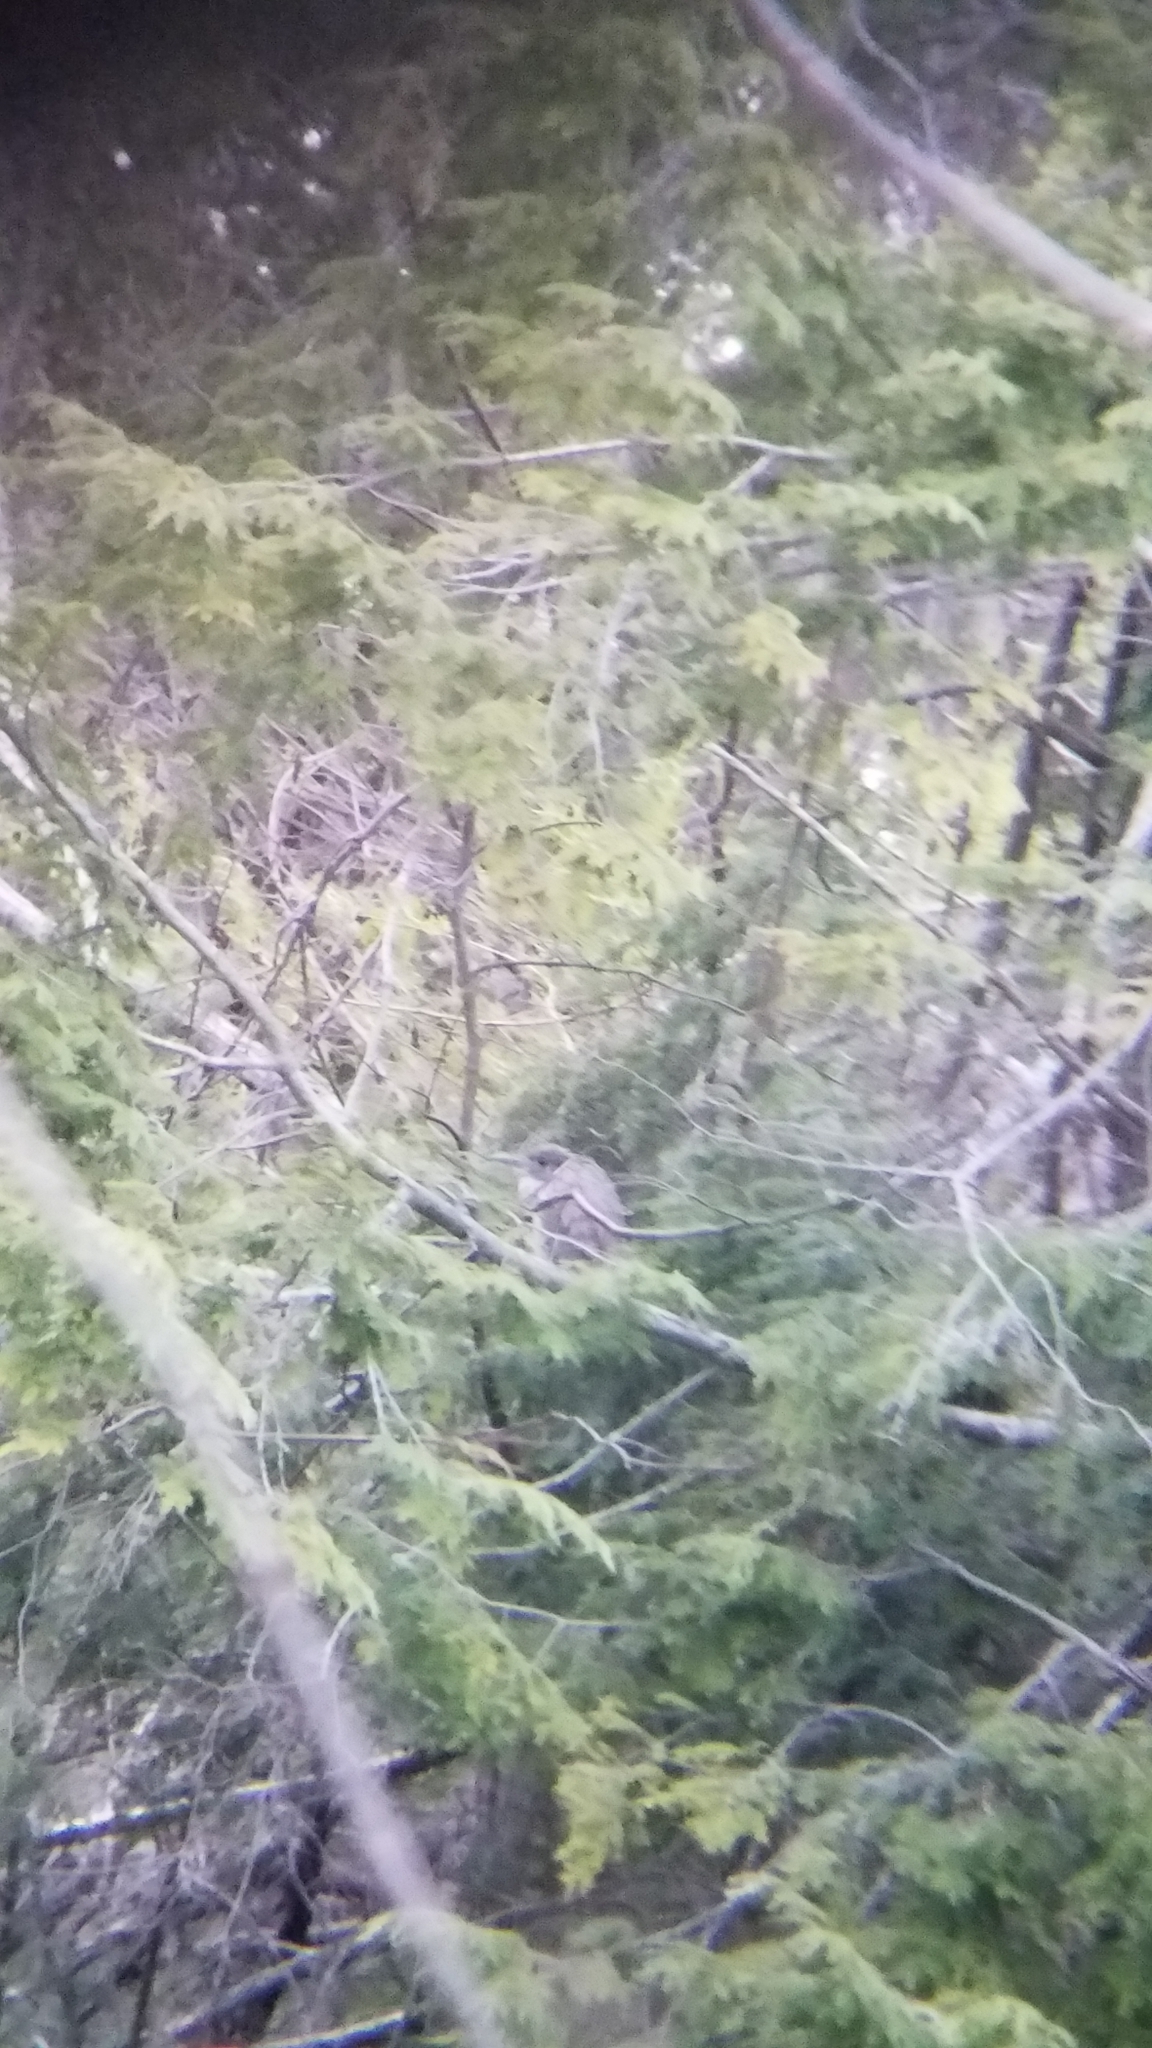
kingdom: Animalia
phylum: Chordata
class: Aves
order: Pelecaniformes
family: Ardeidae
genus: Nyctanassa
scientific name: Nyctanassa violacea
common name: Yellow-crowned night heron
